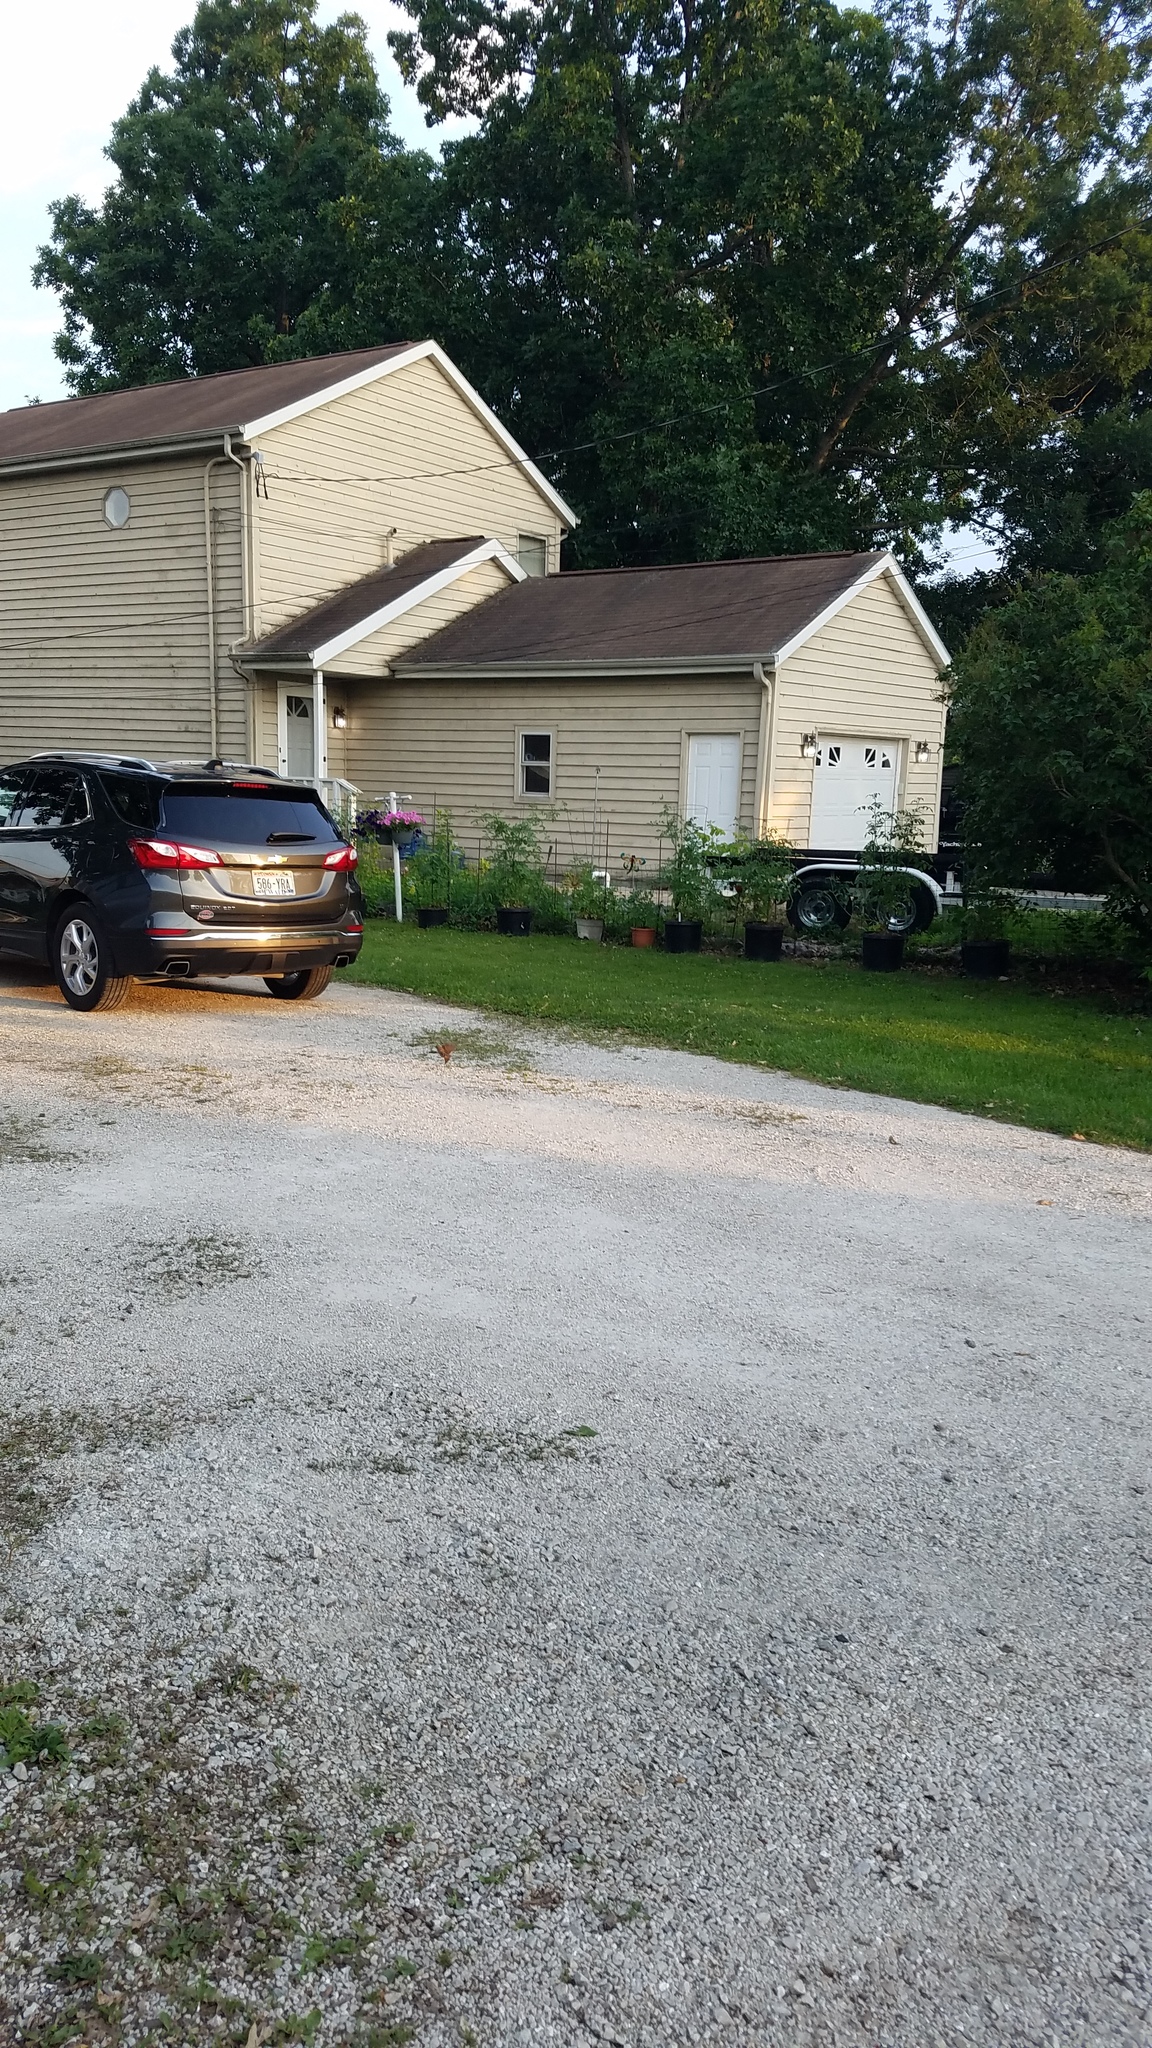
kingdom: Animalia
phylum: Chordata
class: Aves
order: Passeriformes
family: Passeridae
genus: Passer
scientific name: Passer domesticus
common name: House sparrow
